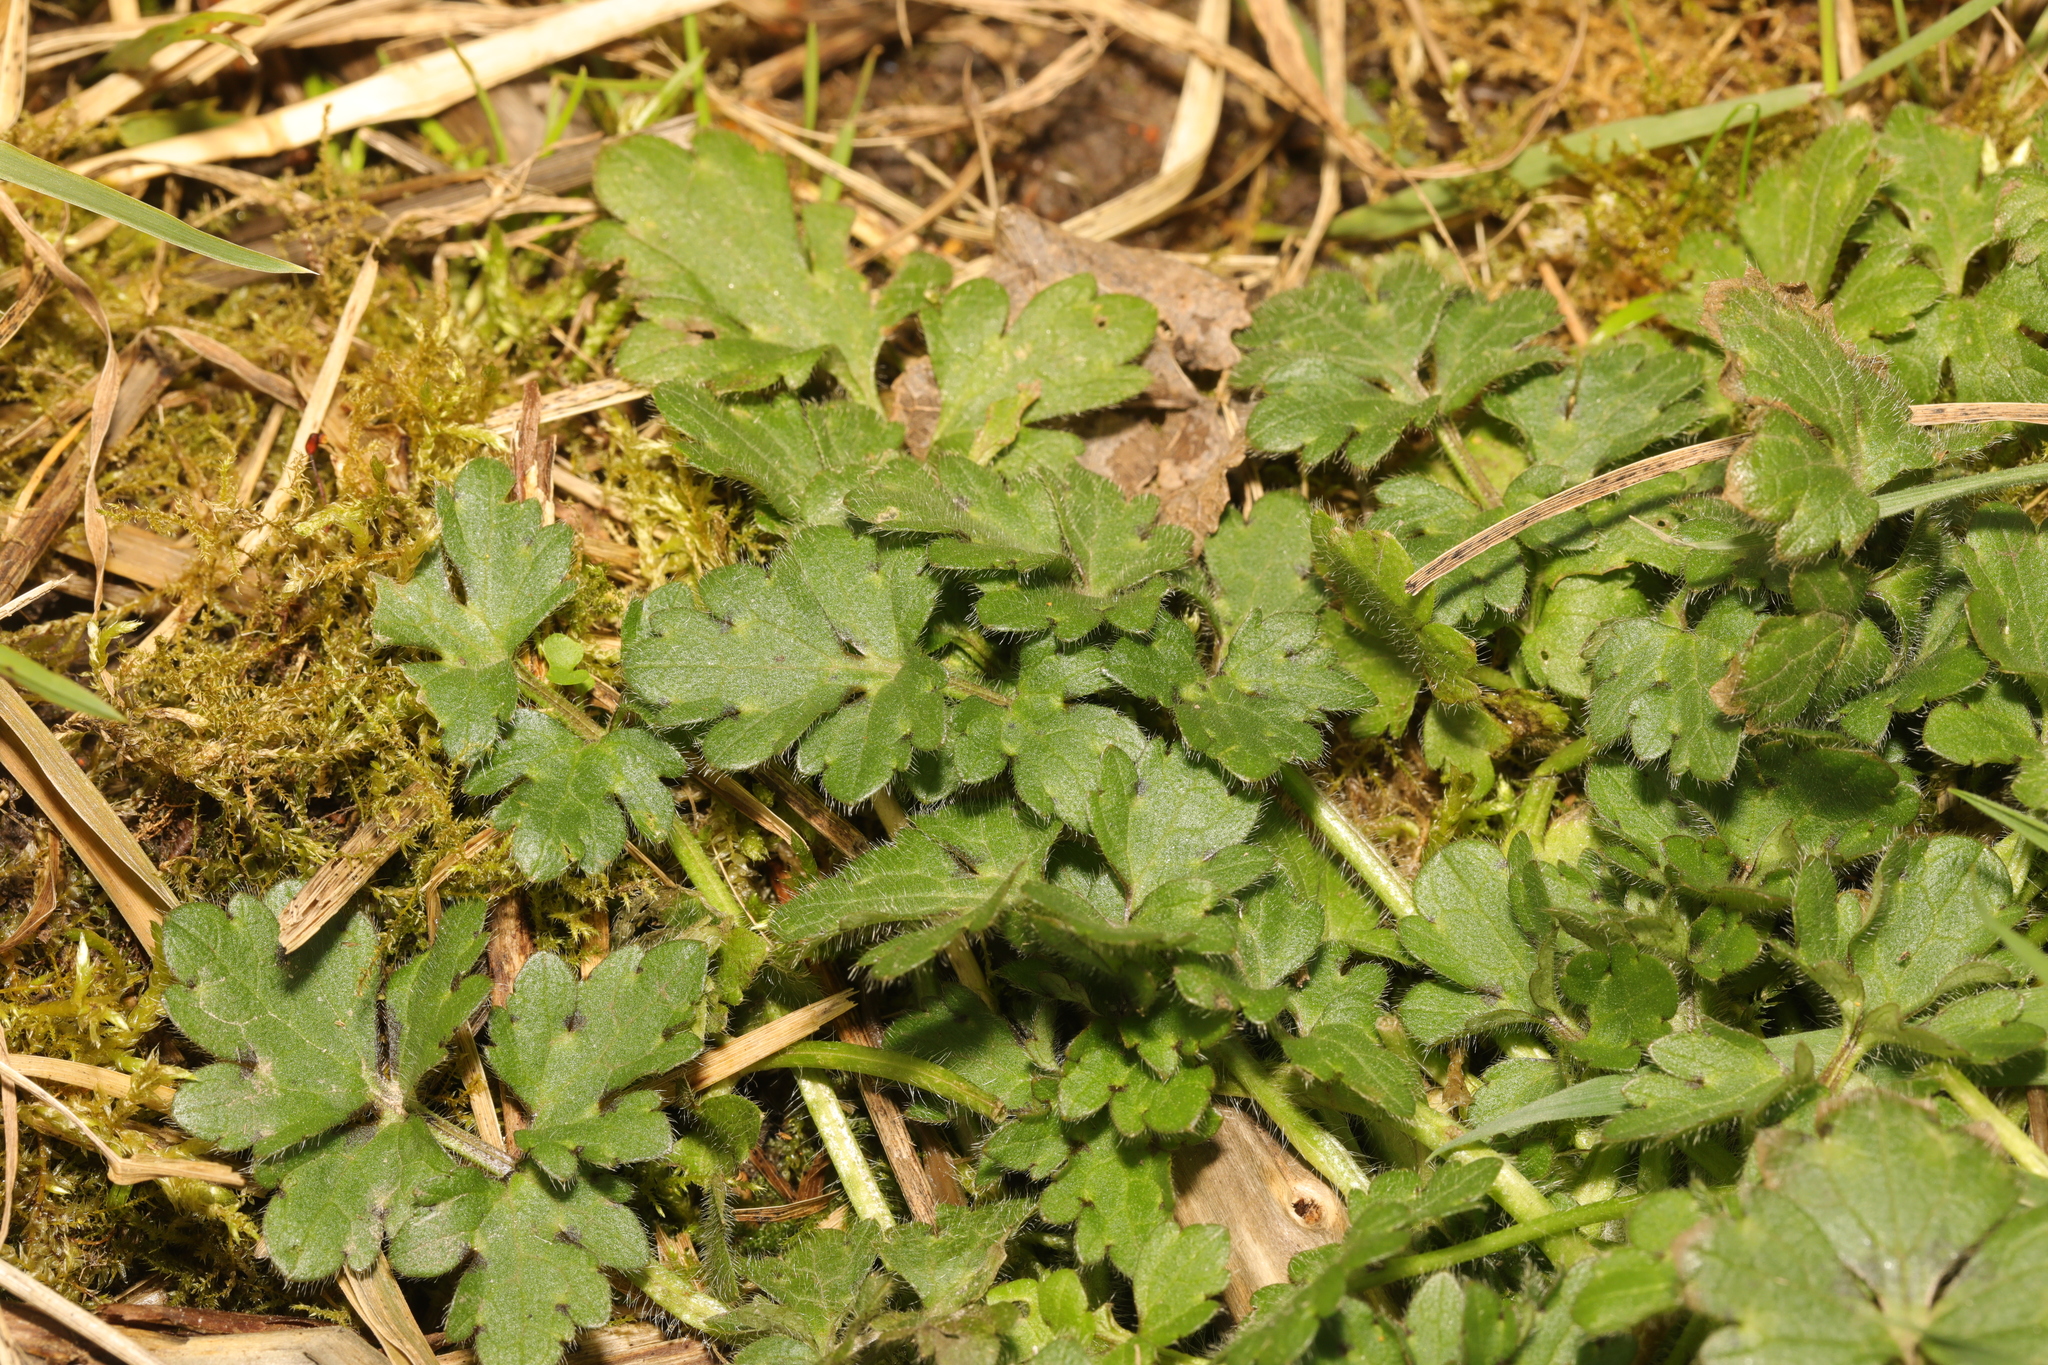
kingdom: Plantae
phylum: Tracheophyta
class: Magnoliopsida
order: Ranunculales
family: Ranunculaceae
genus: Ranunculus
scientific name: Ranunculus bulbosus
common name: Bulbous buttercup
